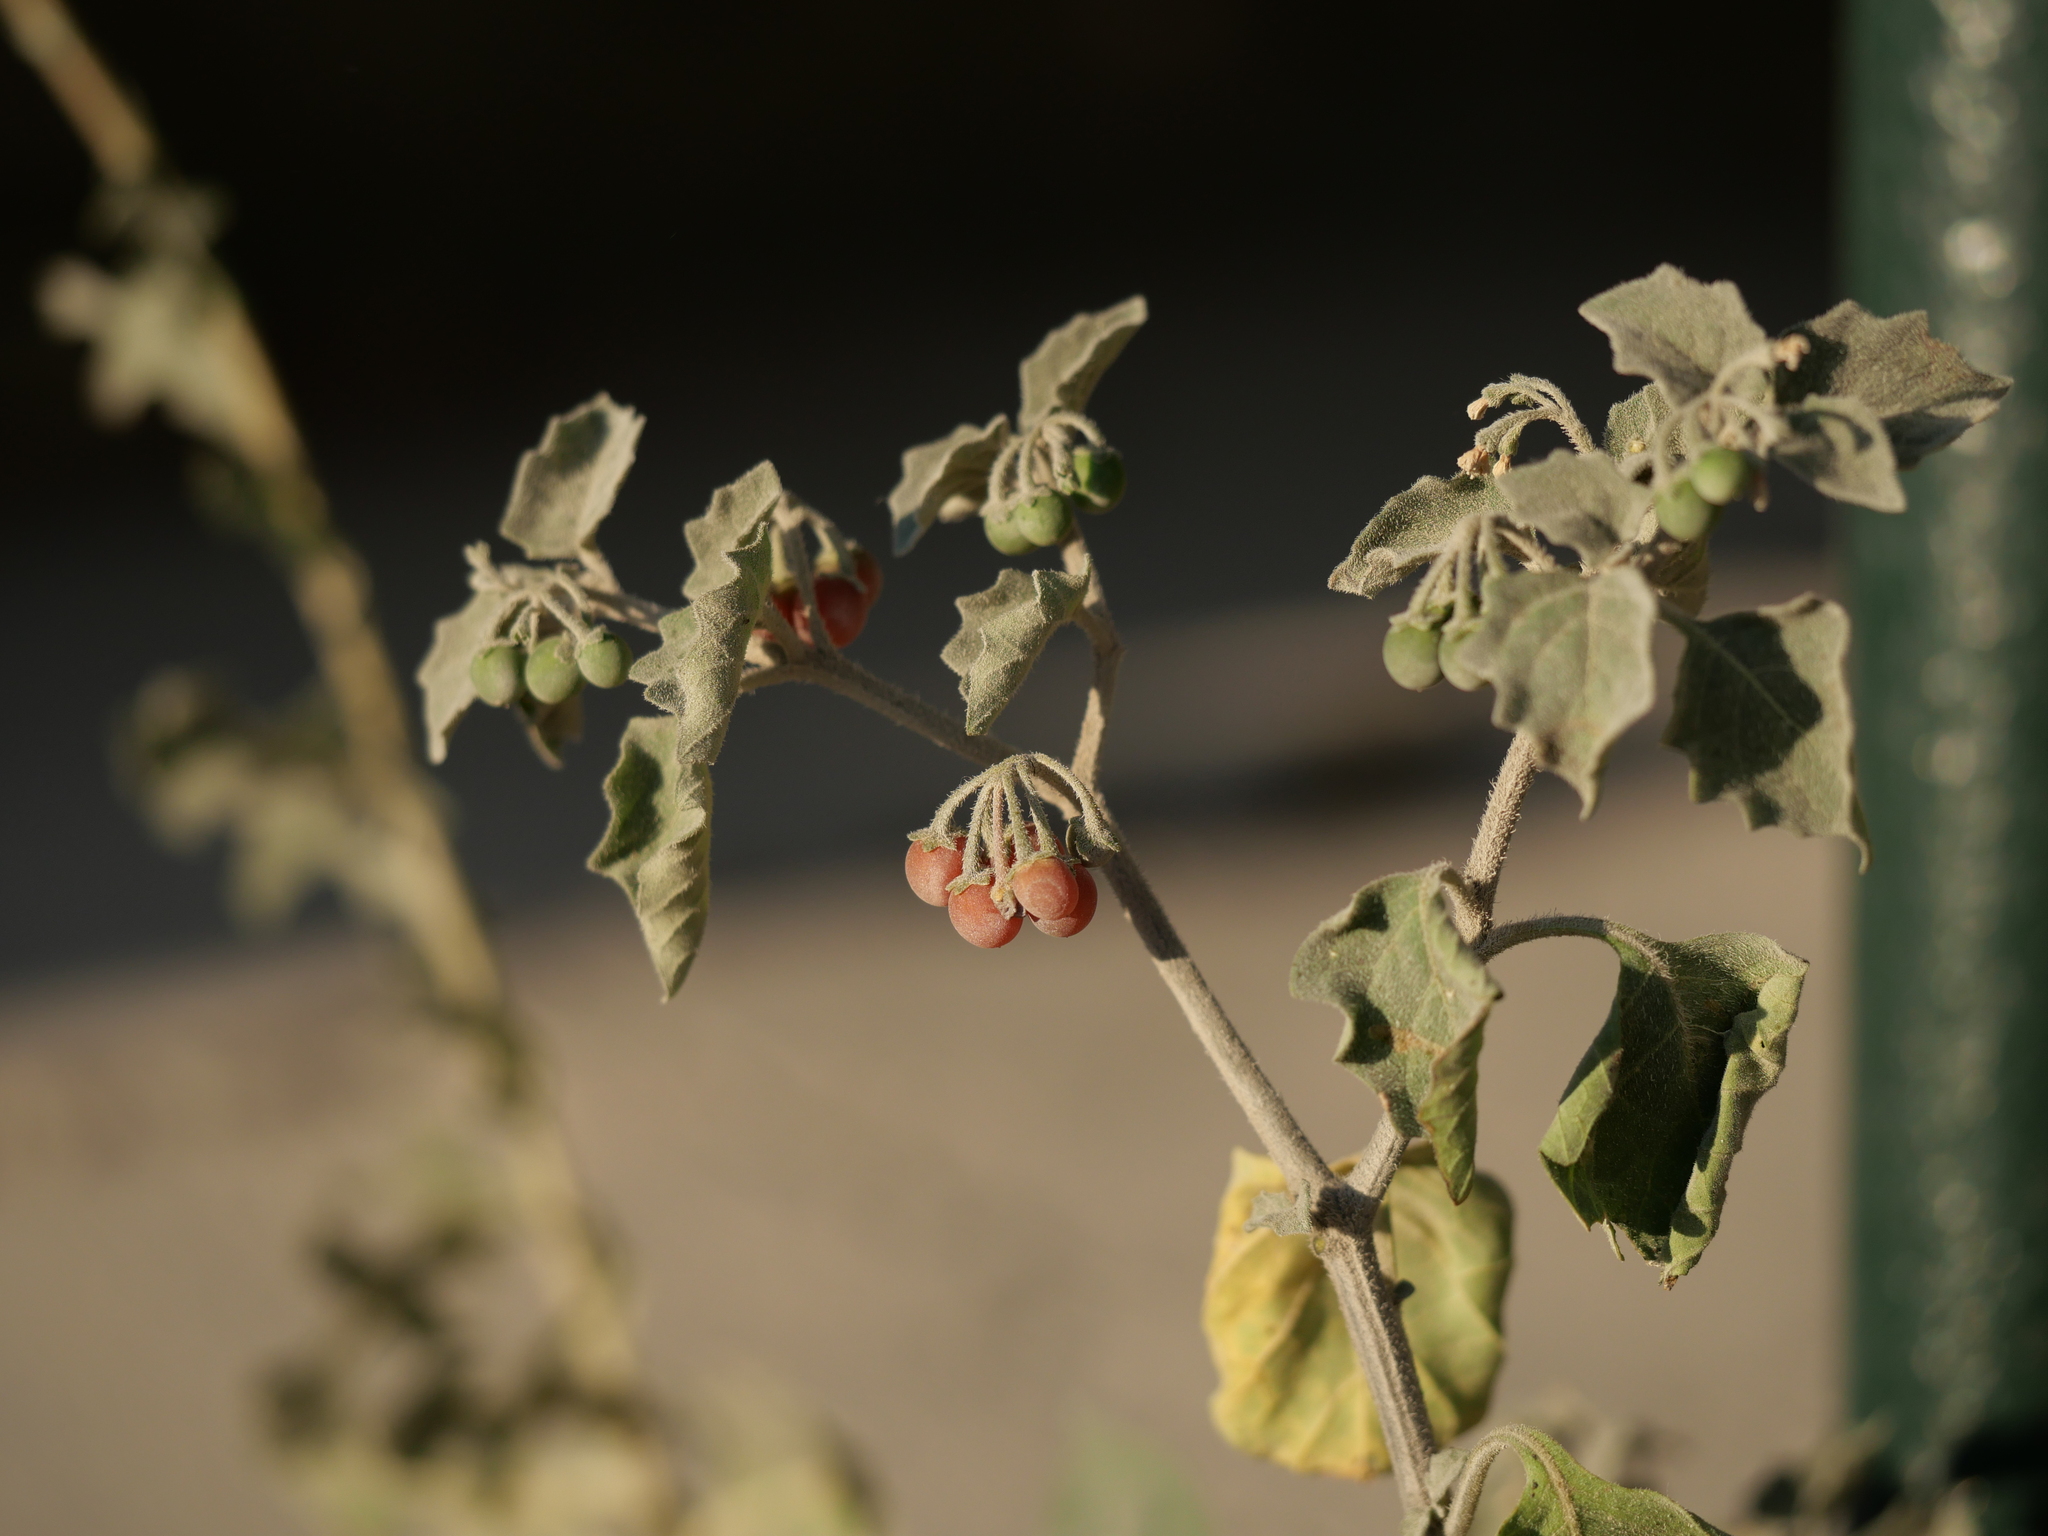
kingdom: Plantae
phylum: Tracheophyta
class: Magnoliopsida
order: Solanales
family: Solanaceae
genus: Solanum
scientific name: Solanum villosum
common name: Red nightshade
